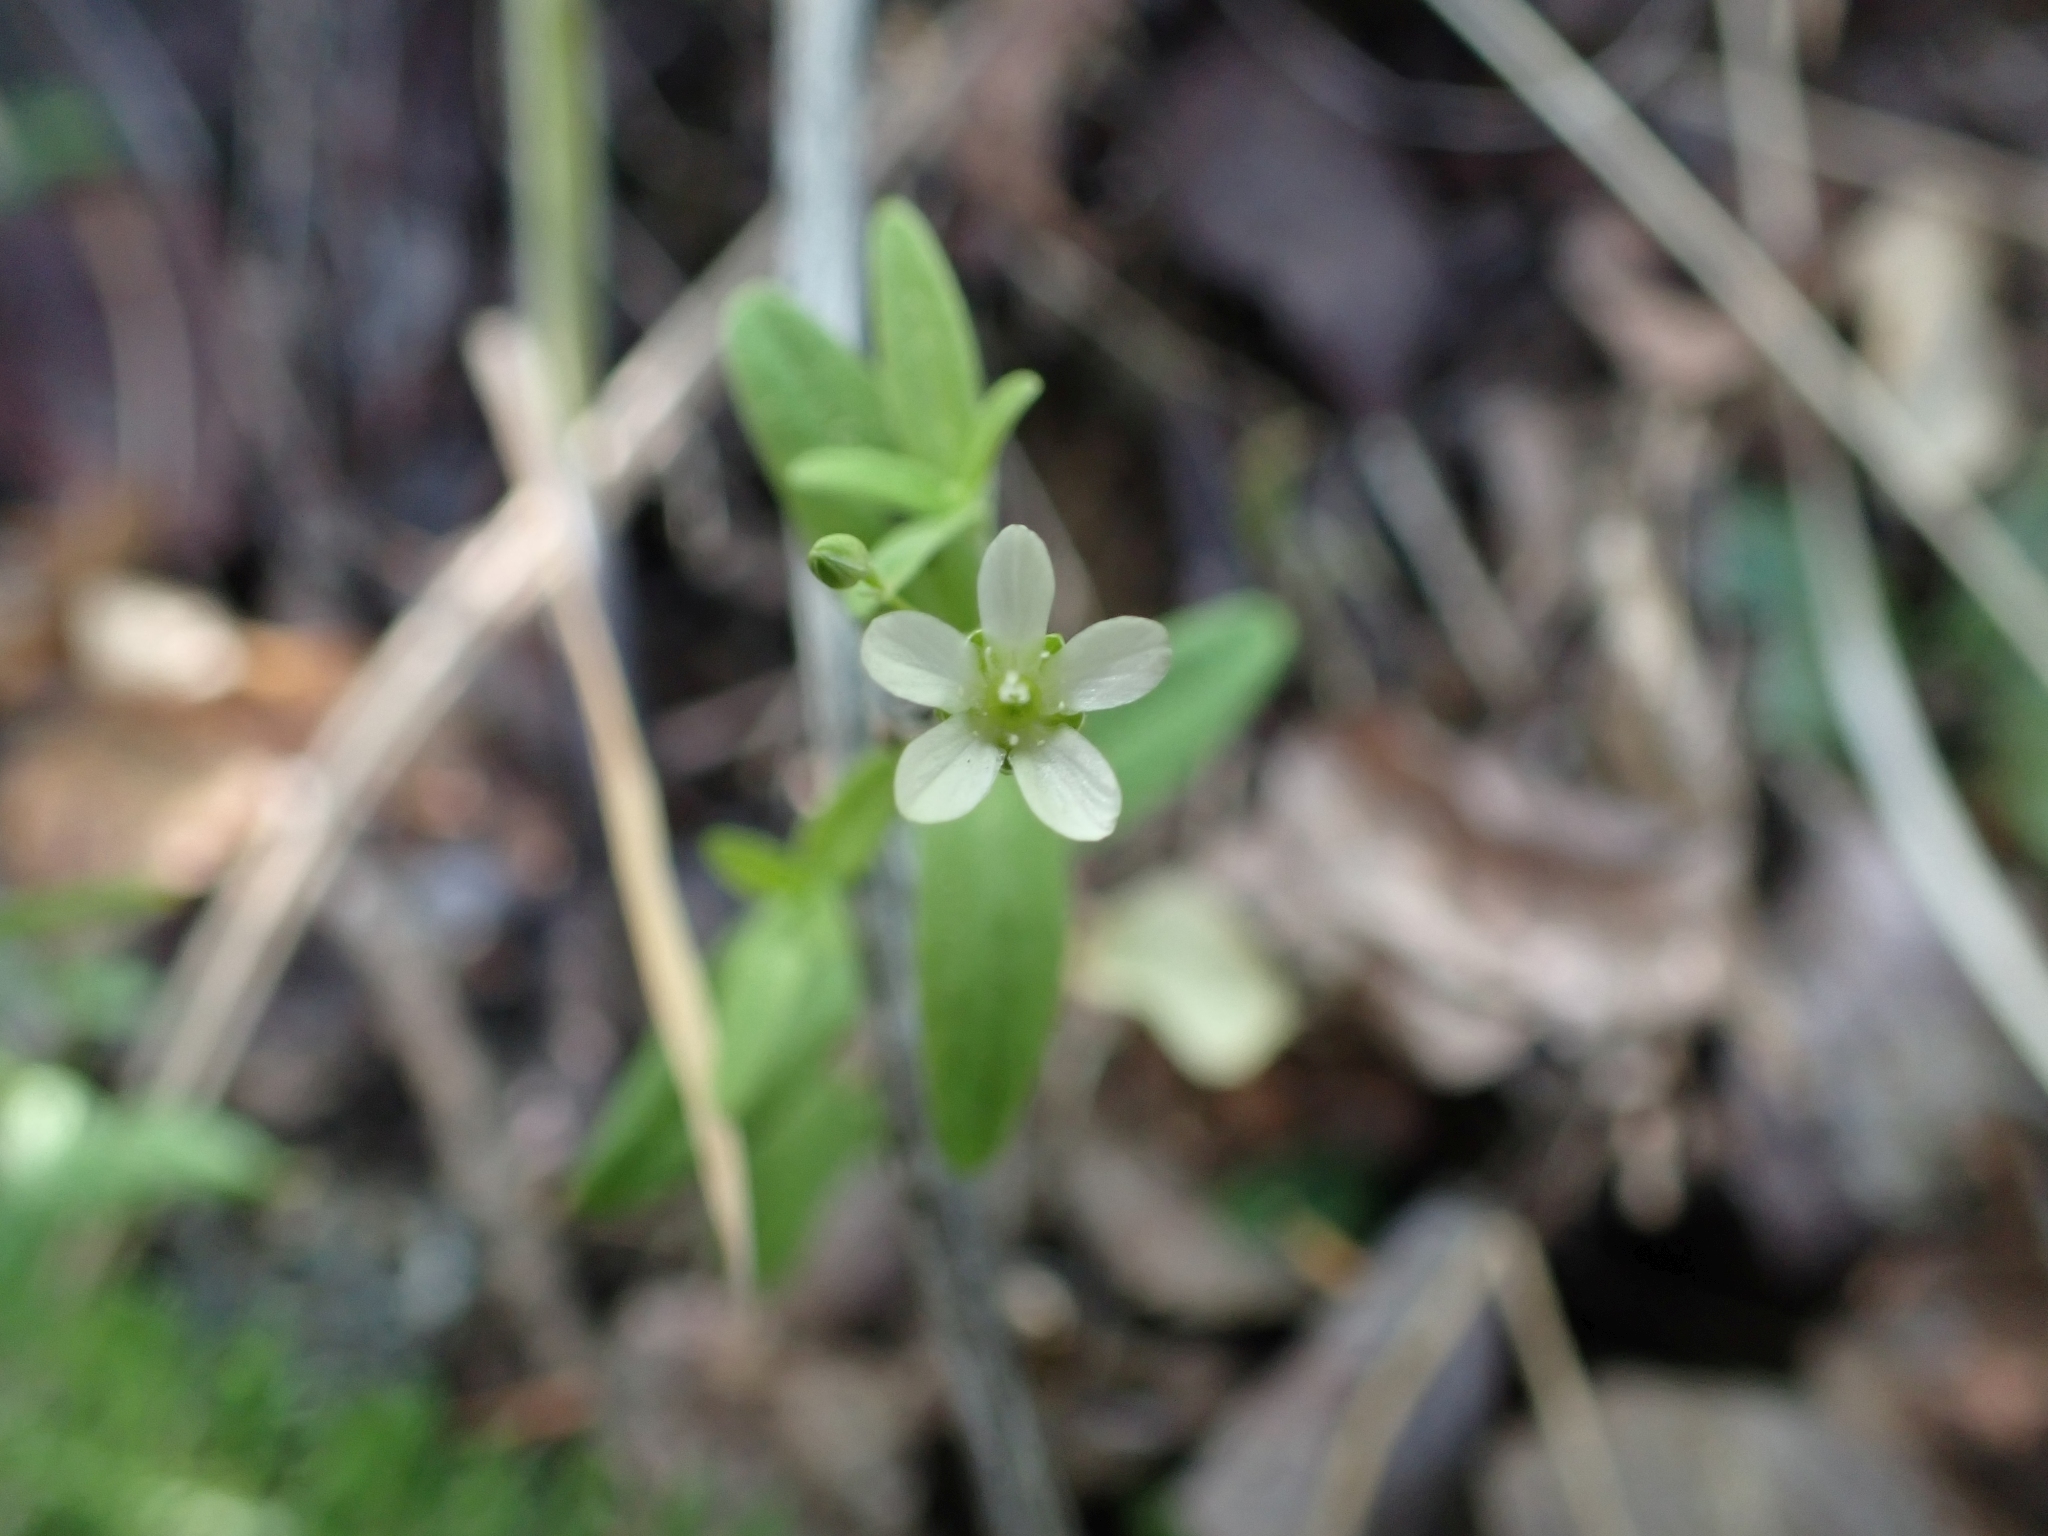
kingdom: Plantae
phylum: Tracheophyta
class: Magnoliopsida
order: Caryophyllales
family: Caryophyllaceae
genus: Moehringia
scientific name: Moehringia lateriflora
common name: Blunt-leaved sandwort
